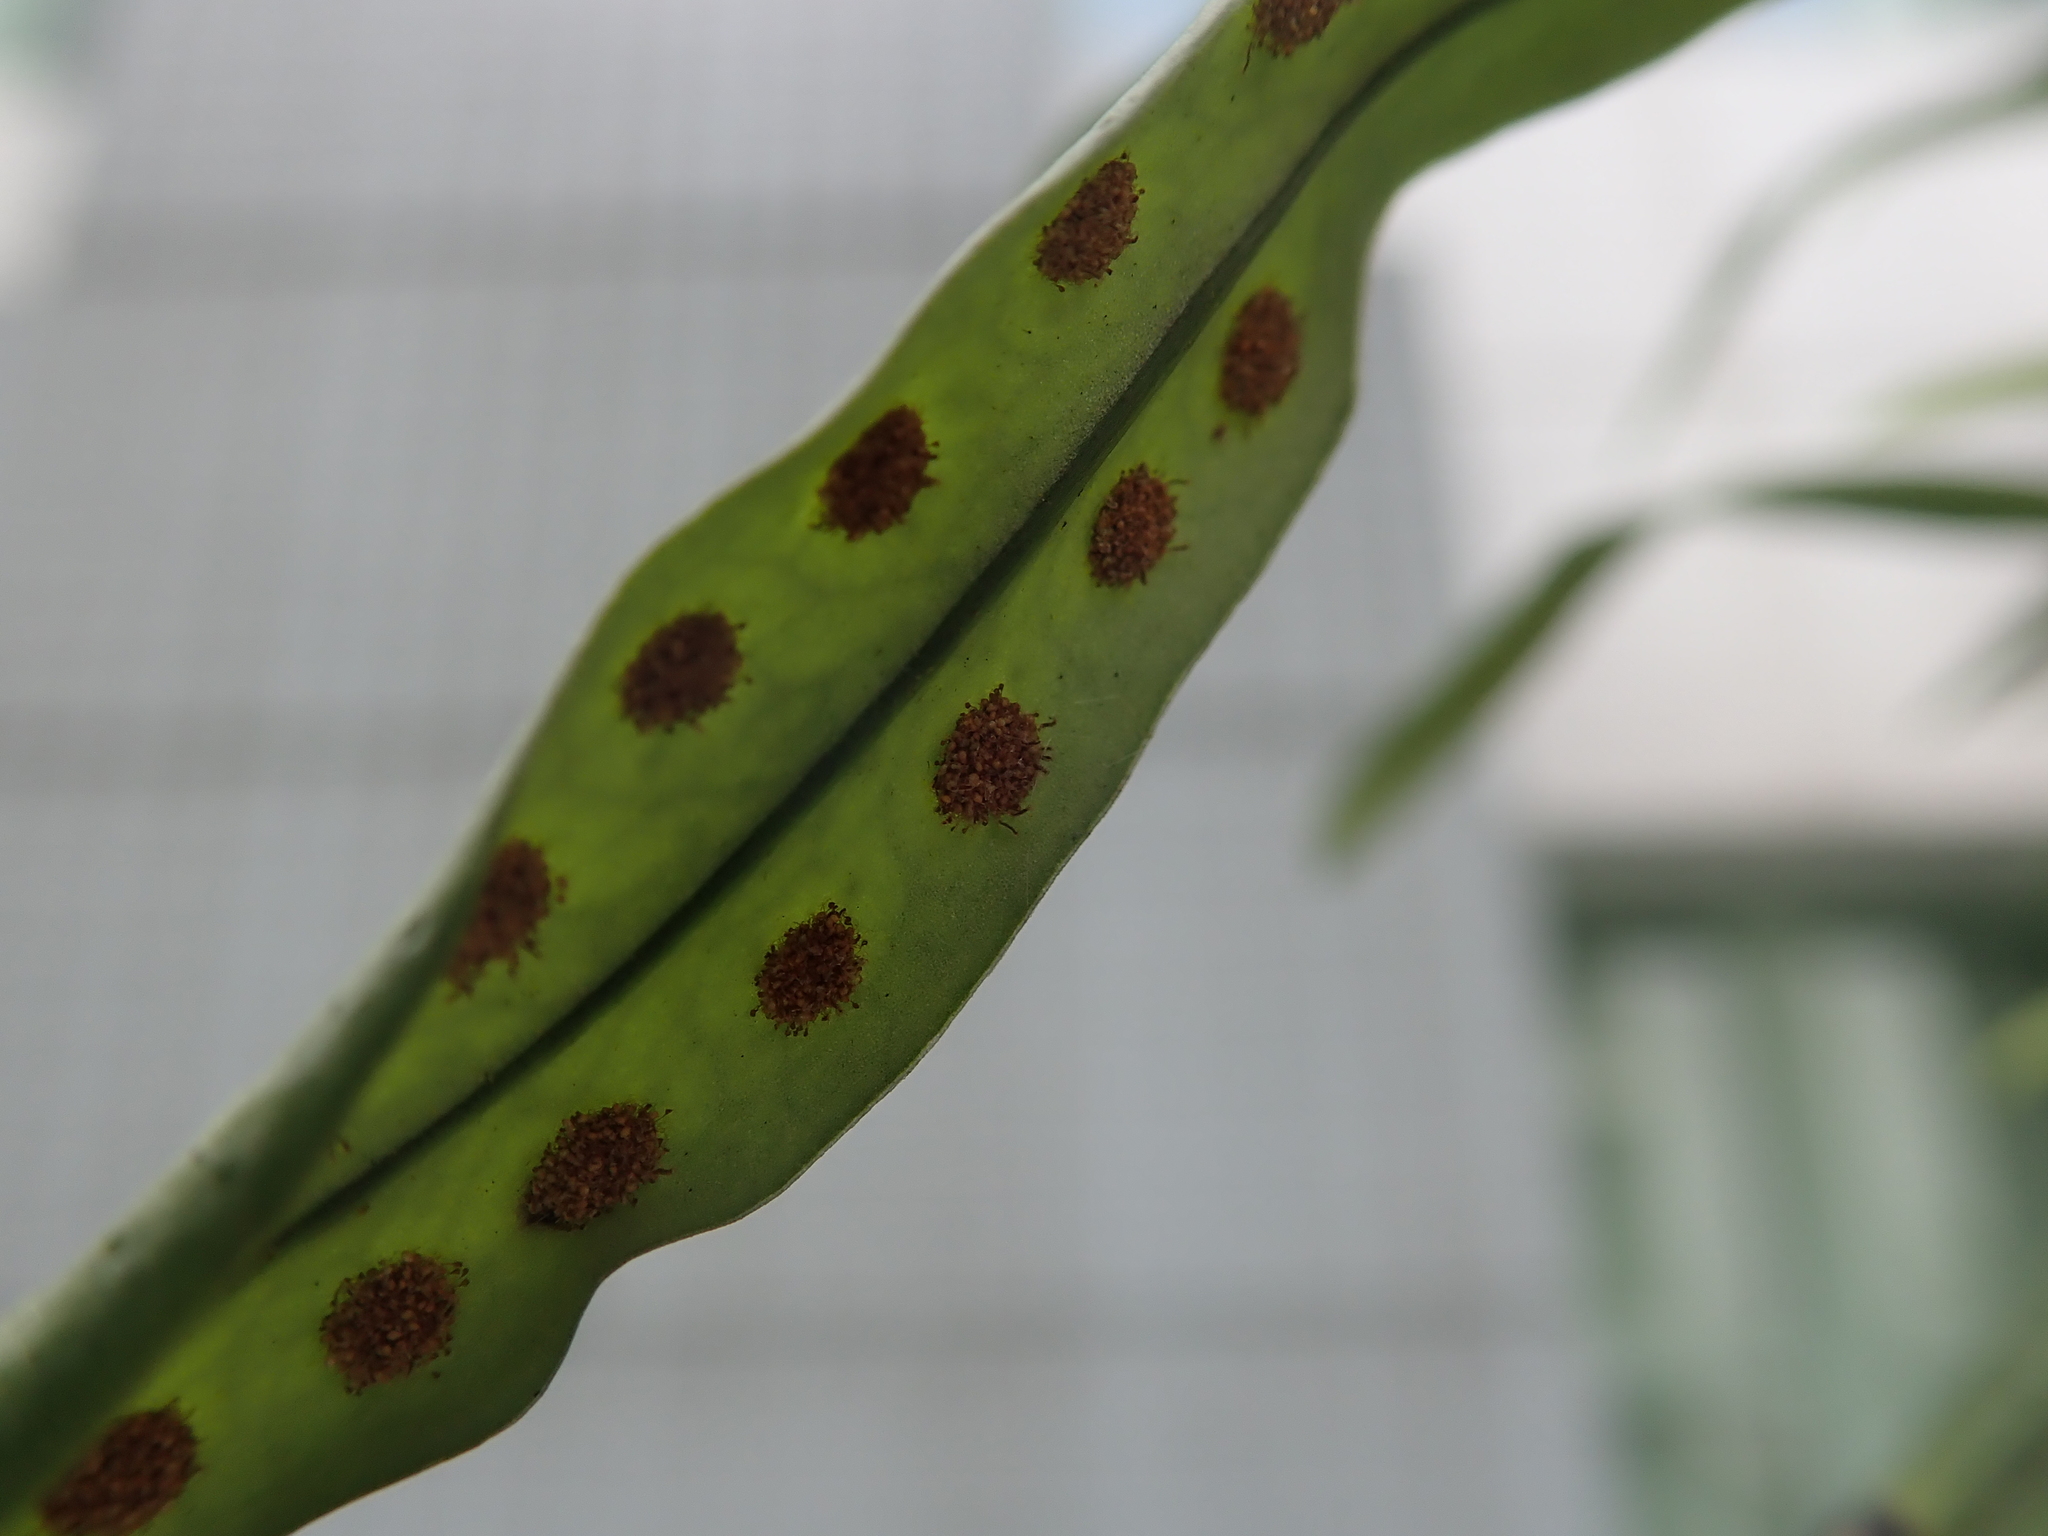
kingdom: Plantae
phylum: Tracheophyta
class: Polypodiopsida
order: Polypodiales
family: Polypodiaceae
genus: Lepisorus
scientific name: Lepisorus thunbergianus
